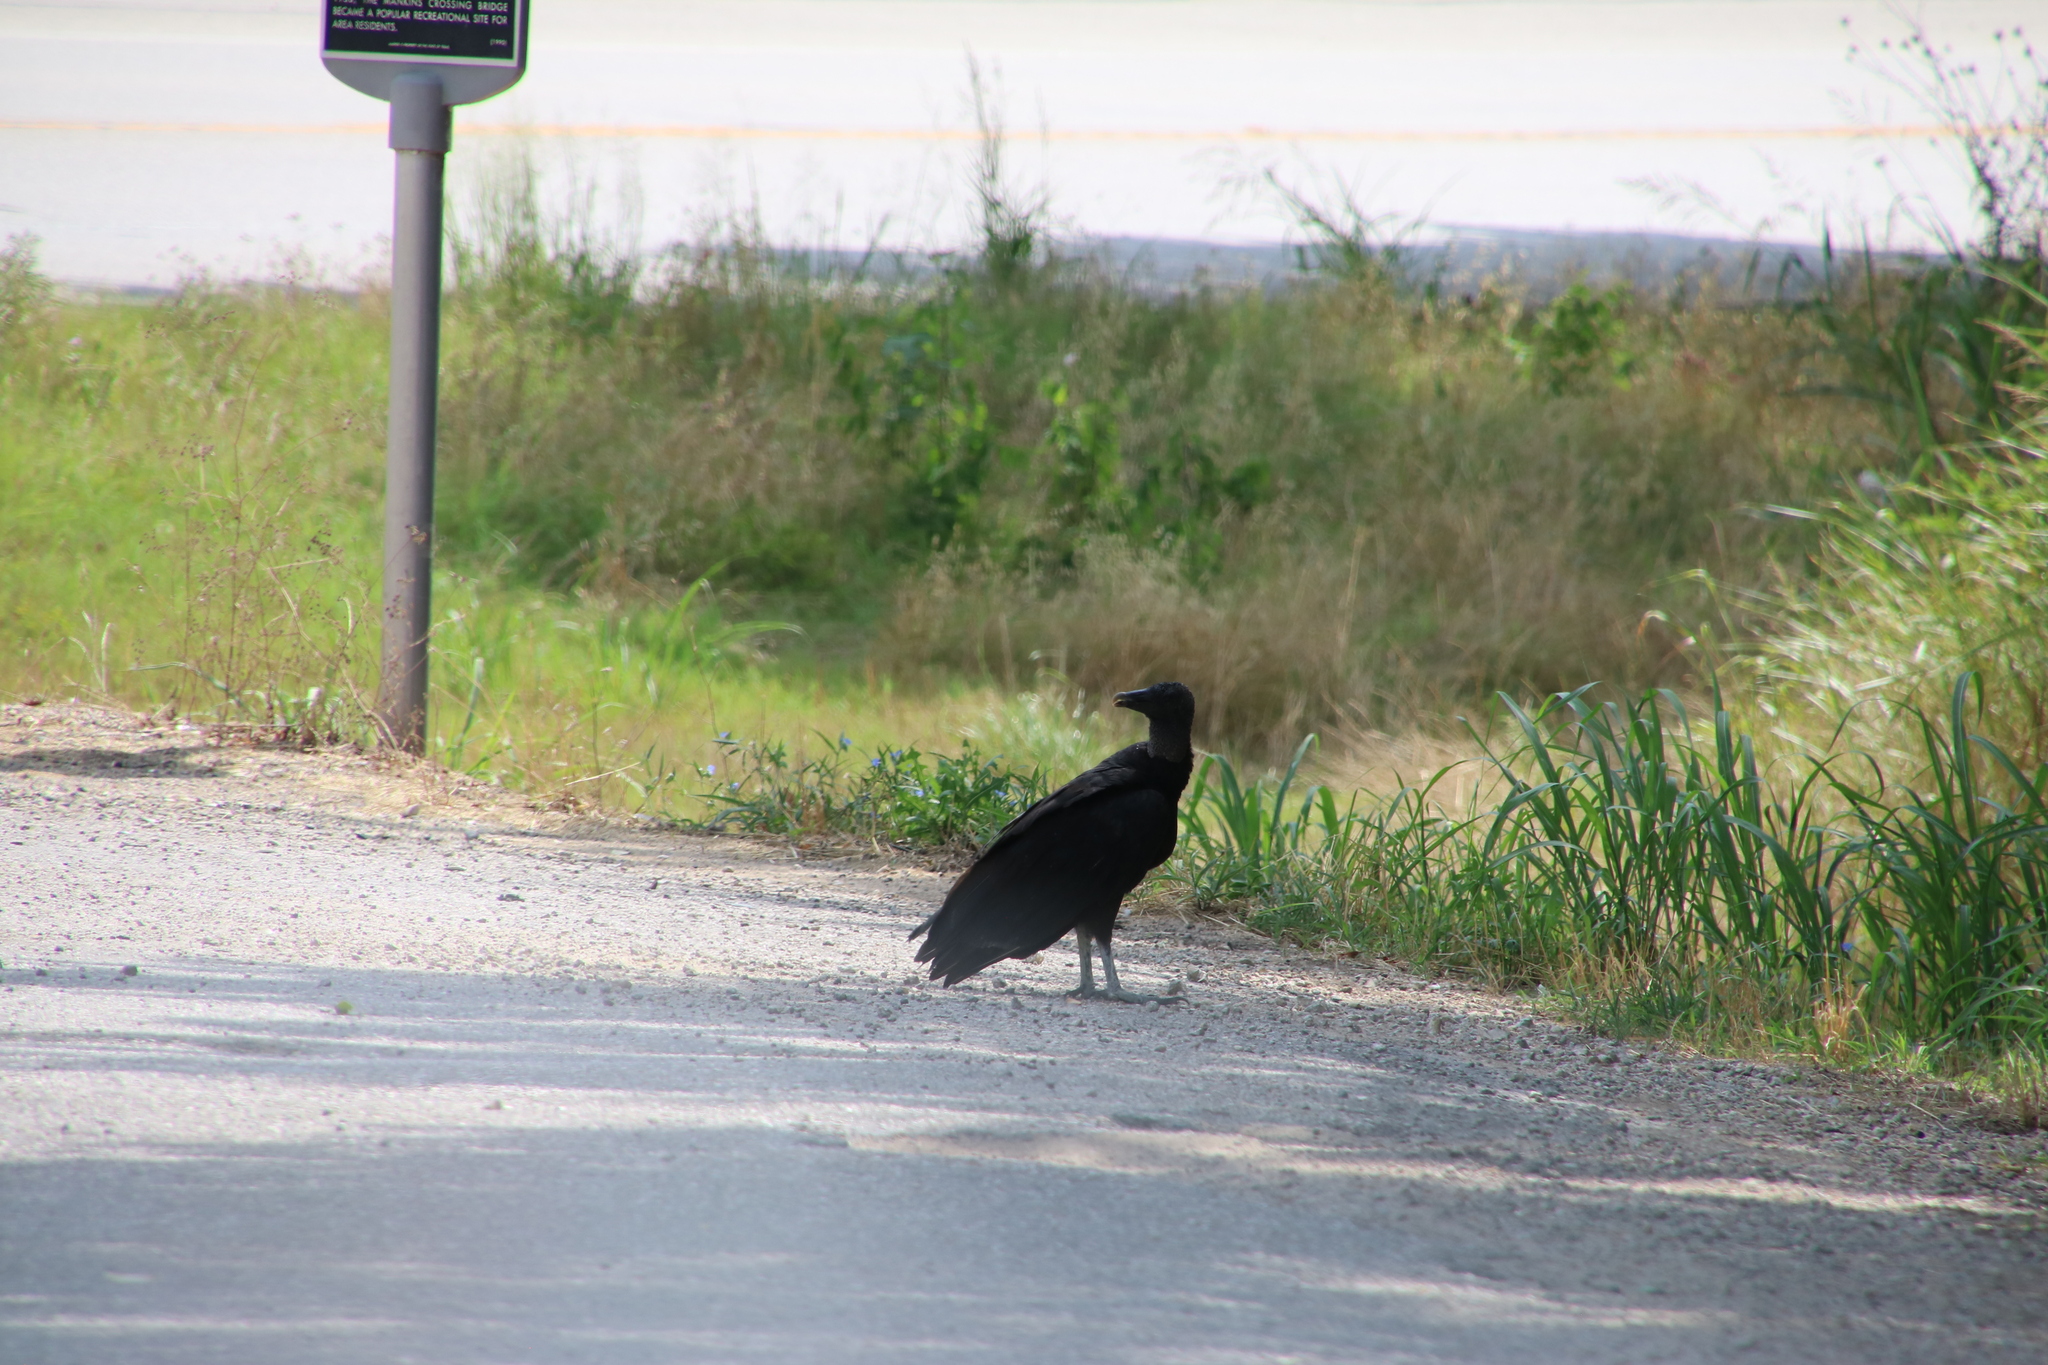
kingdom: Animalia
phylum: Chordata
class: Aves
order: Accipitriformes
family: Cathartidae
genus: Coragyps
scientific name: Coragyps atratus
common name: Black vulture
